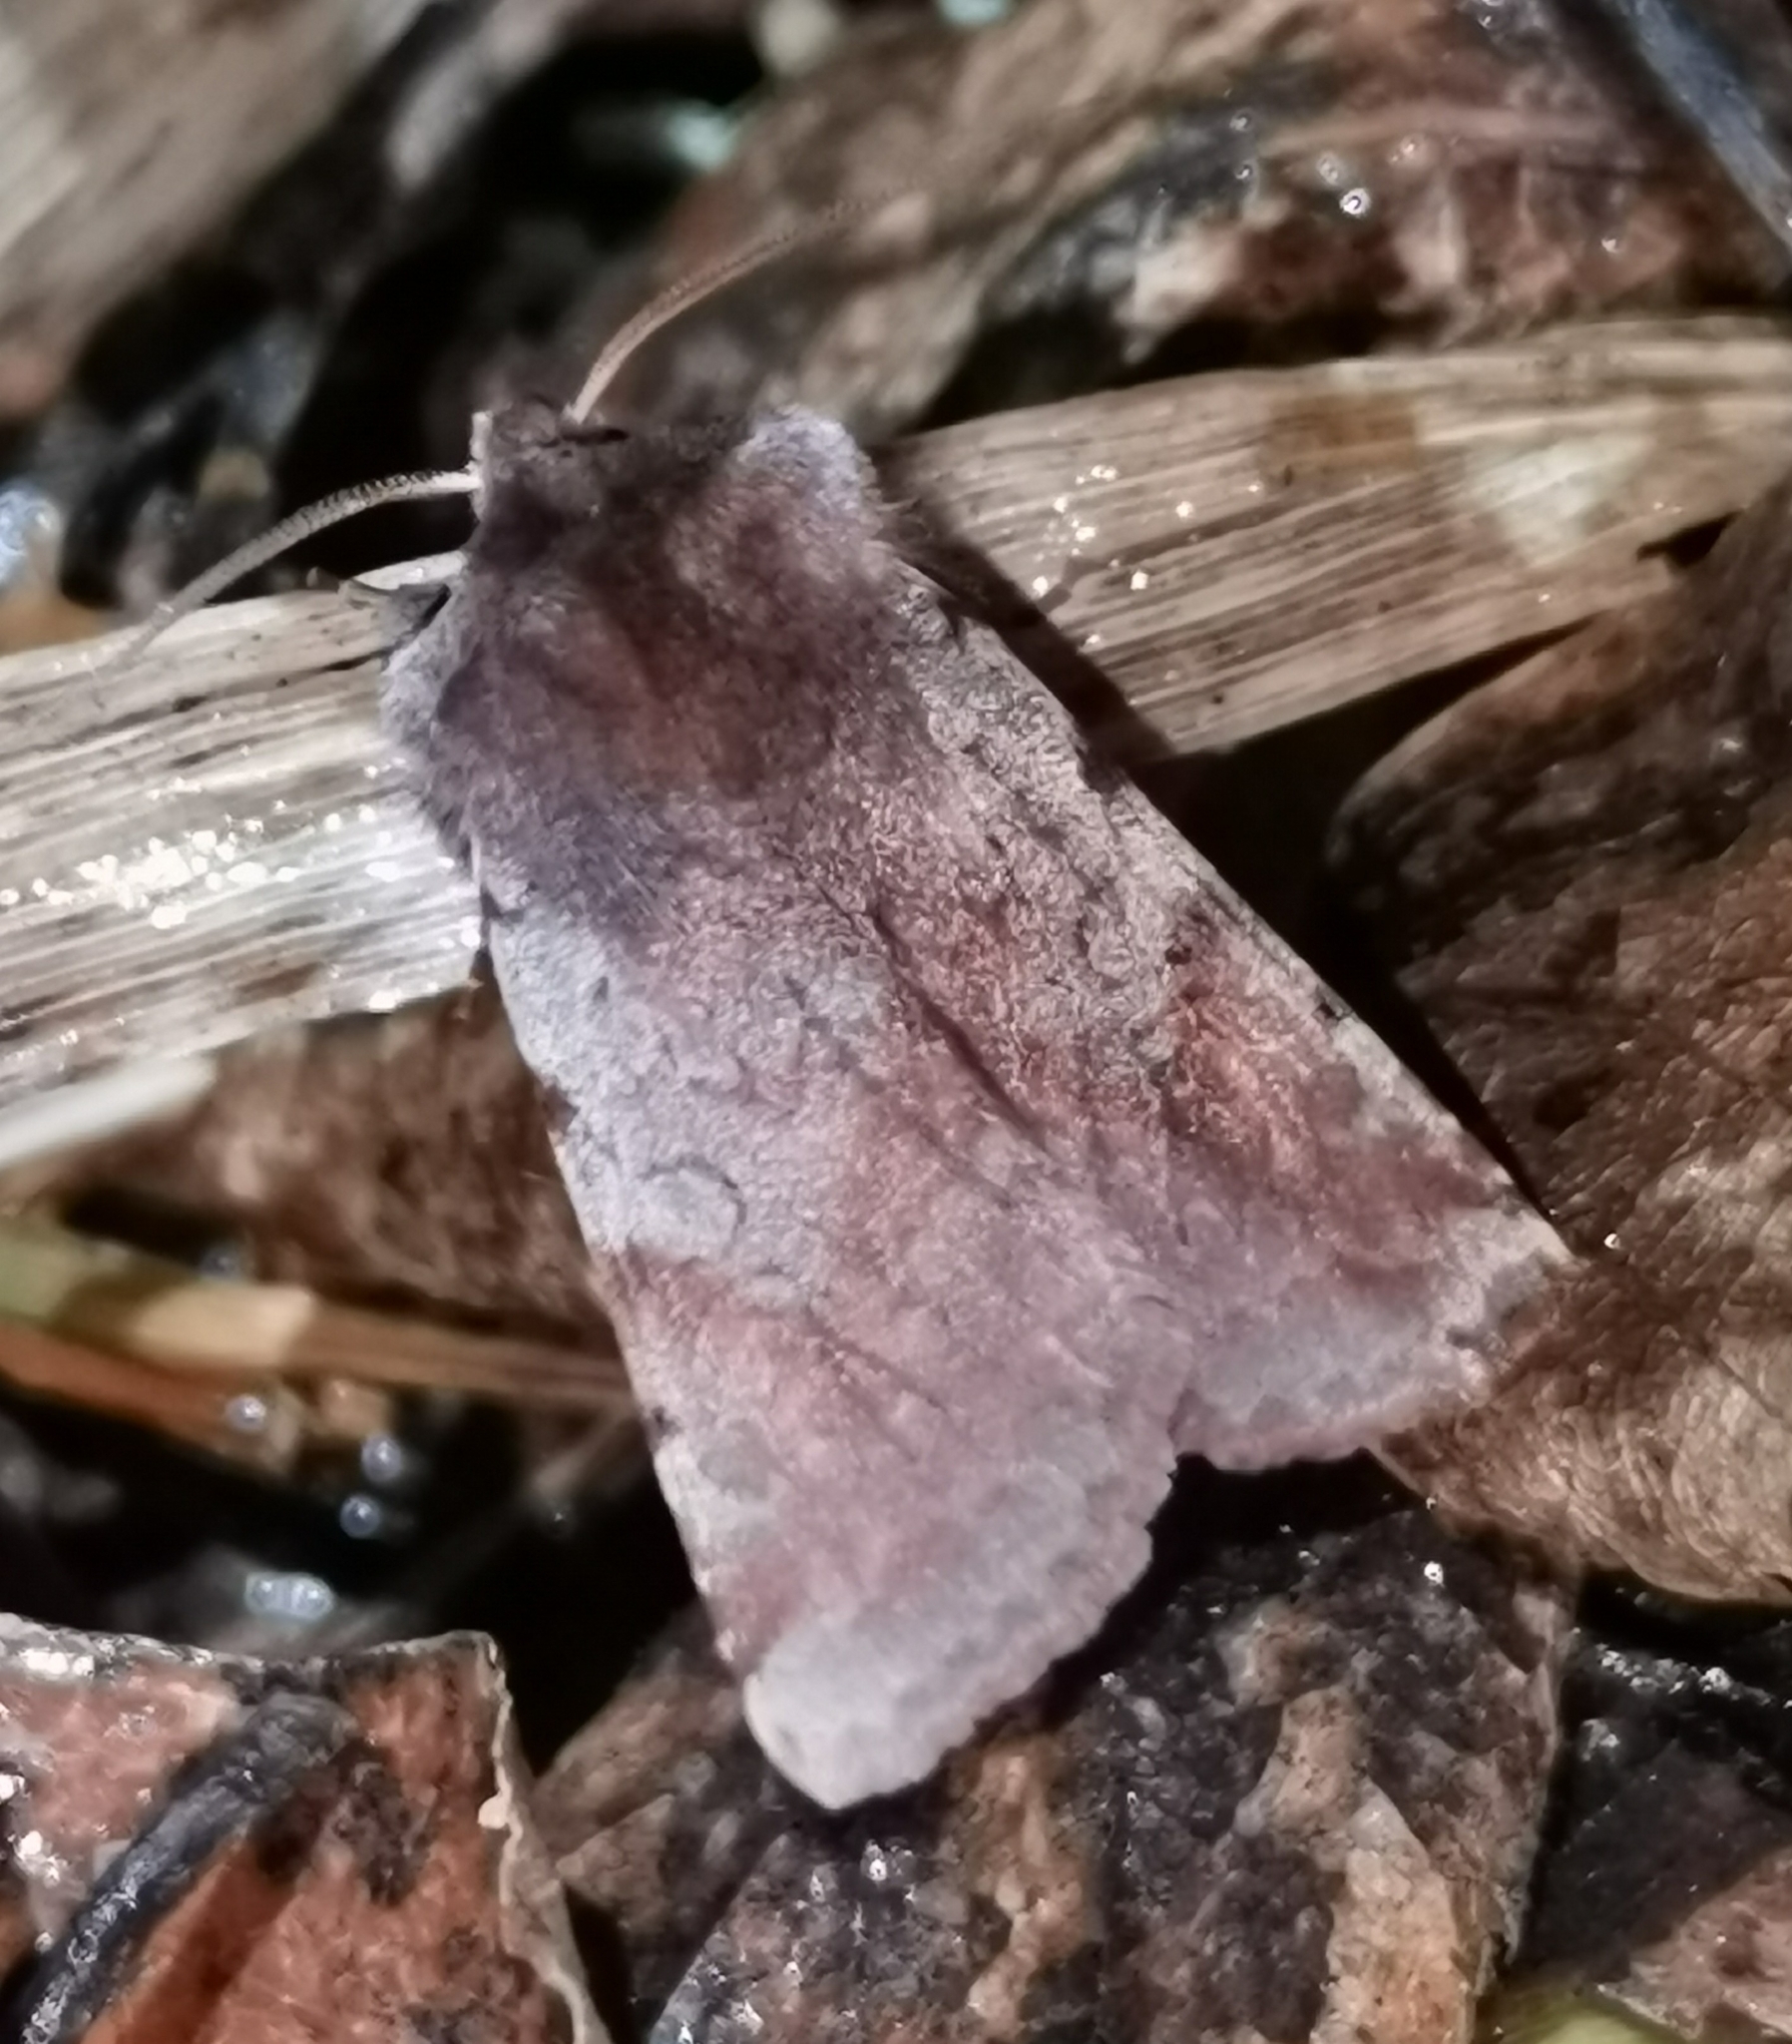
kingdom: Animalia
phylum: Arthropoda
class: Insecta
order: Lepidoptera
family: Noctuidae
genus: Cerastis
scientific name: Cerastis rubricosa
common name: Red chestnut
